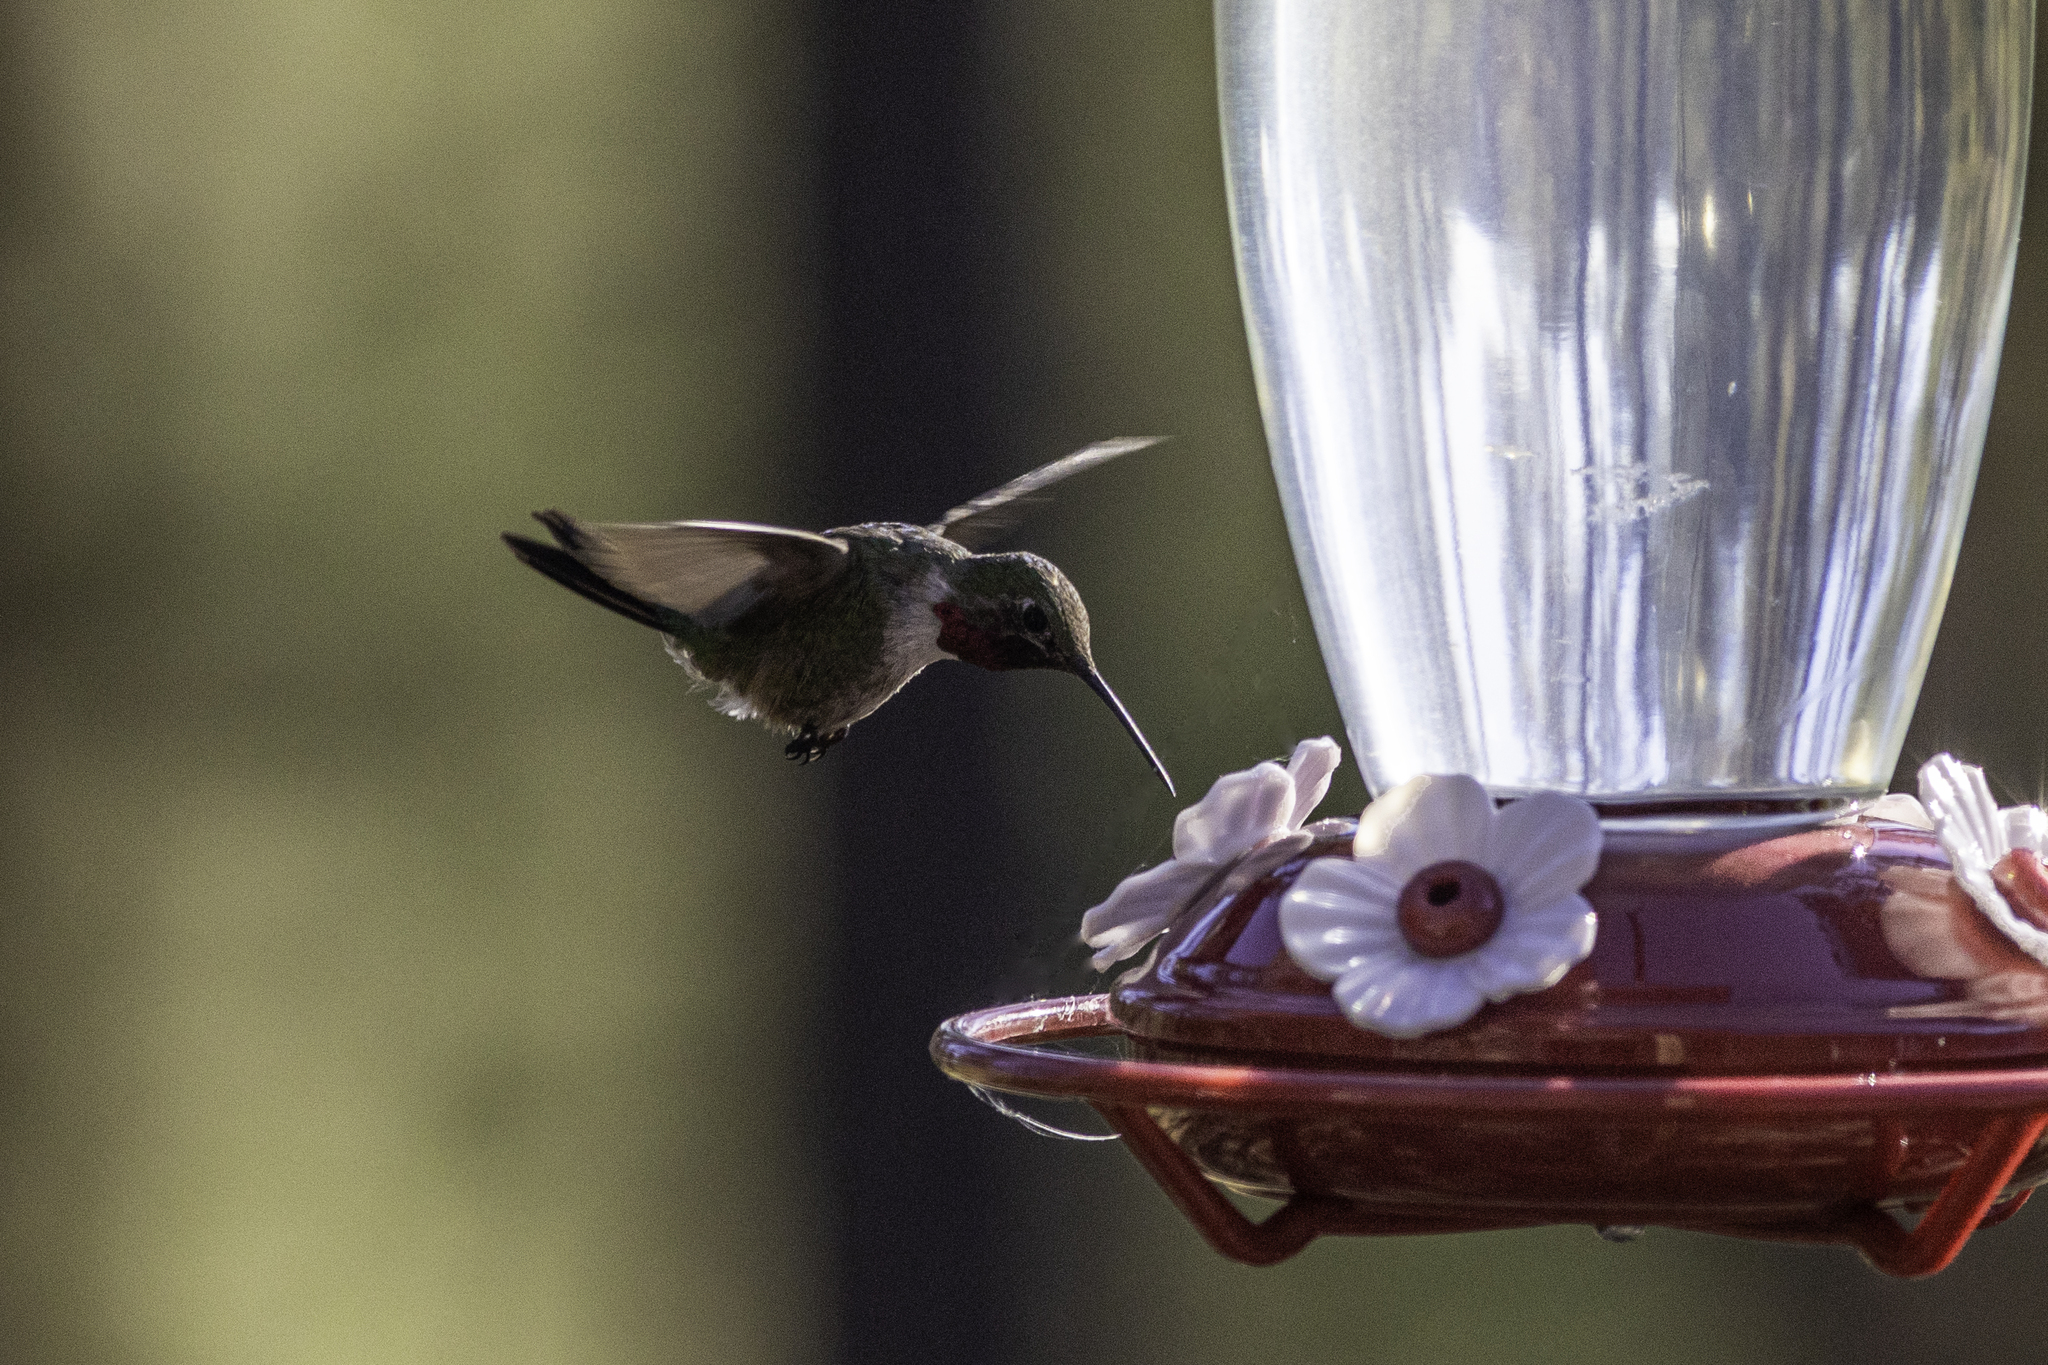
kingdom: Animalia
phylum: Chordata
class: Aves
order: Apodiformes
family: Trochilidae
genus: Selasphorus
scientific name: Selasphorus platycercus
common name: Broad-tailed hummingbird
